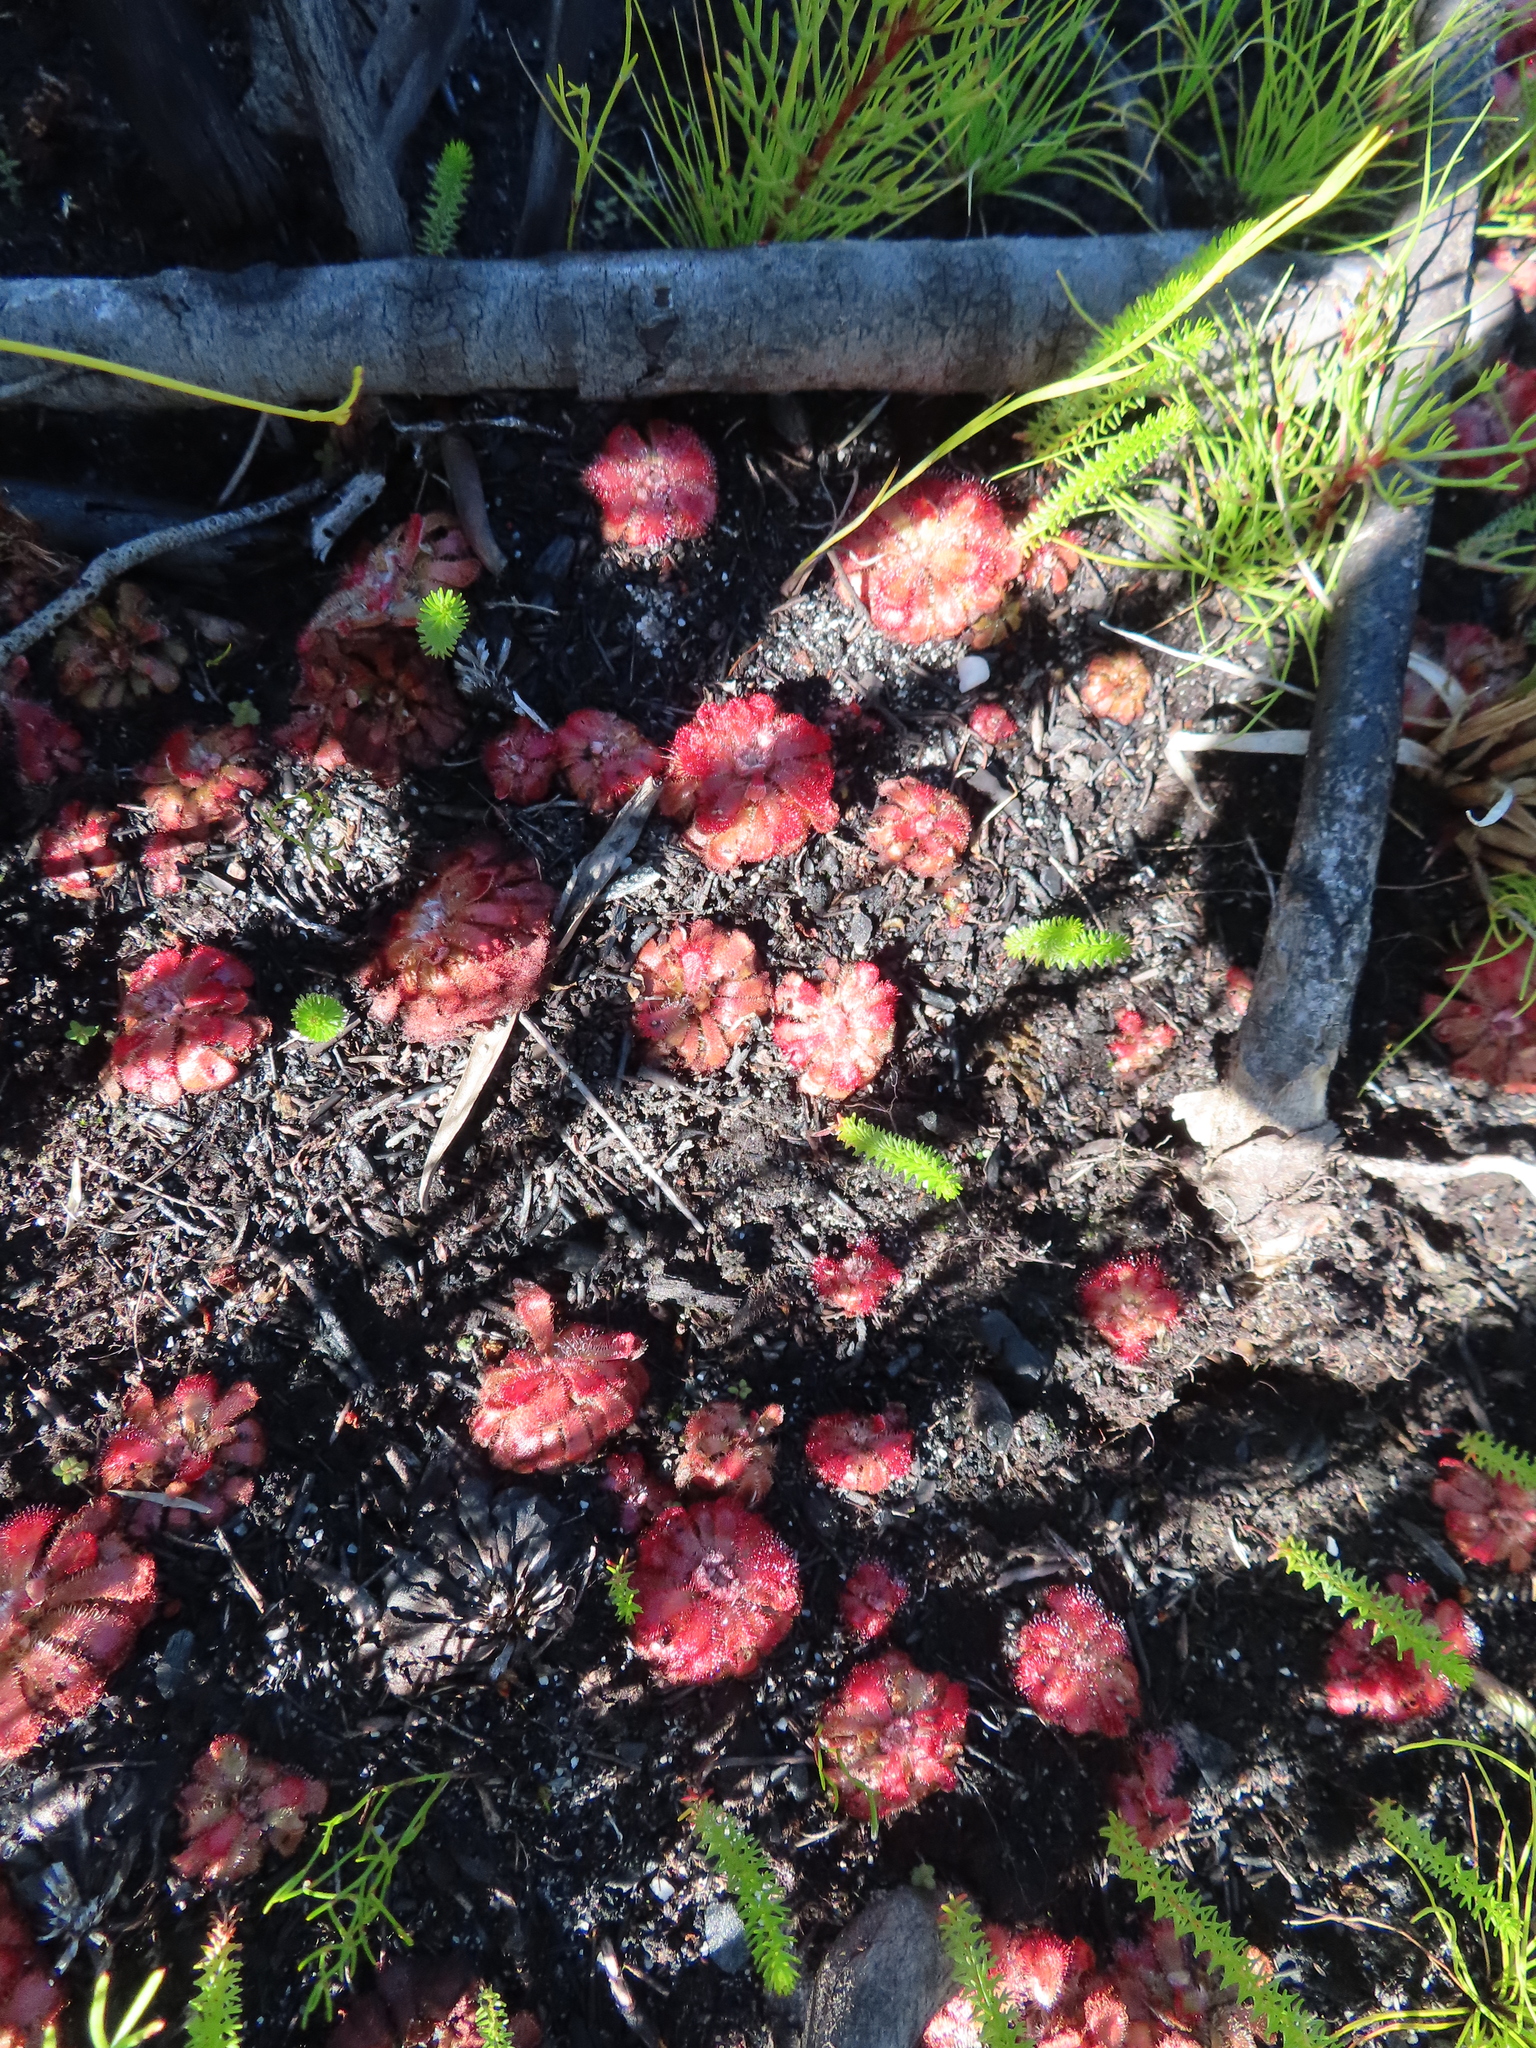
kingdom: Plantae
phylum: Tracheophyta
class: Magnoliopsida
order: Caryophyllales
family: Droseraceae
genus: Drosera
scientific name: Drosera aliciae
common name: Alice sundew
